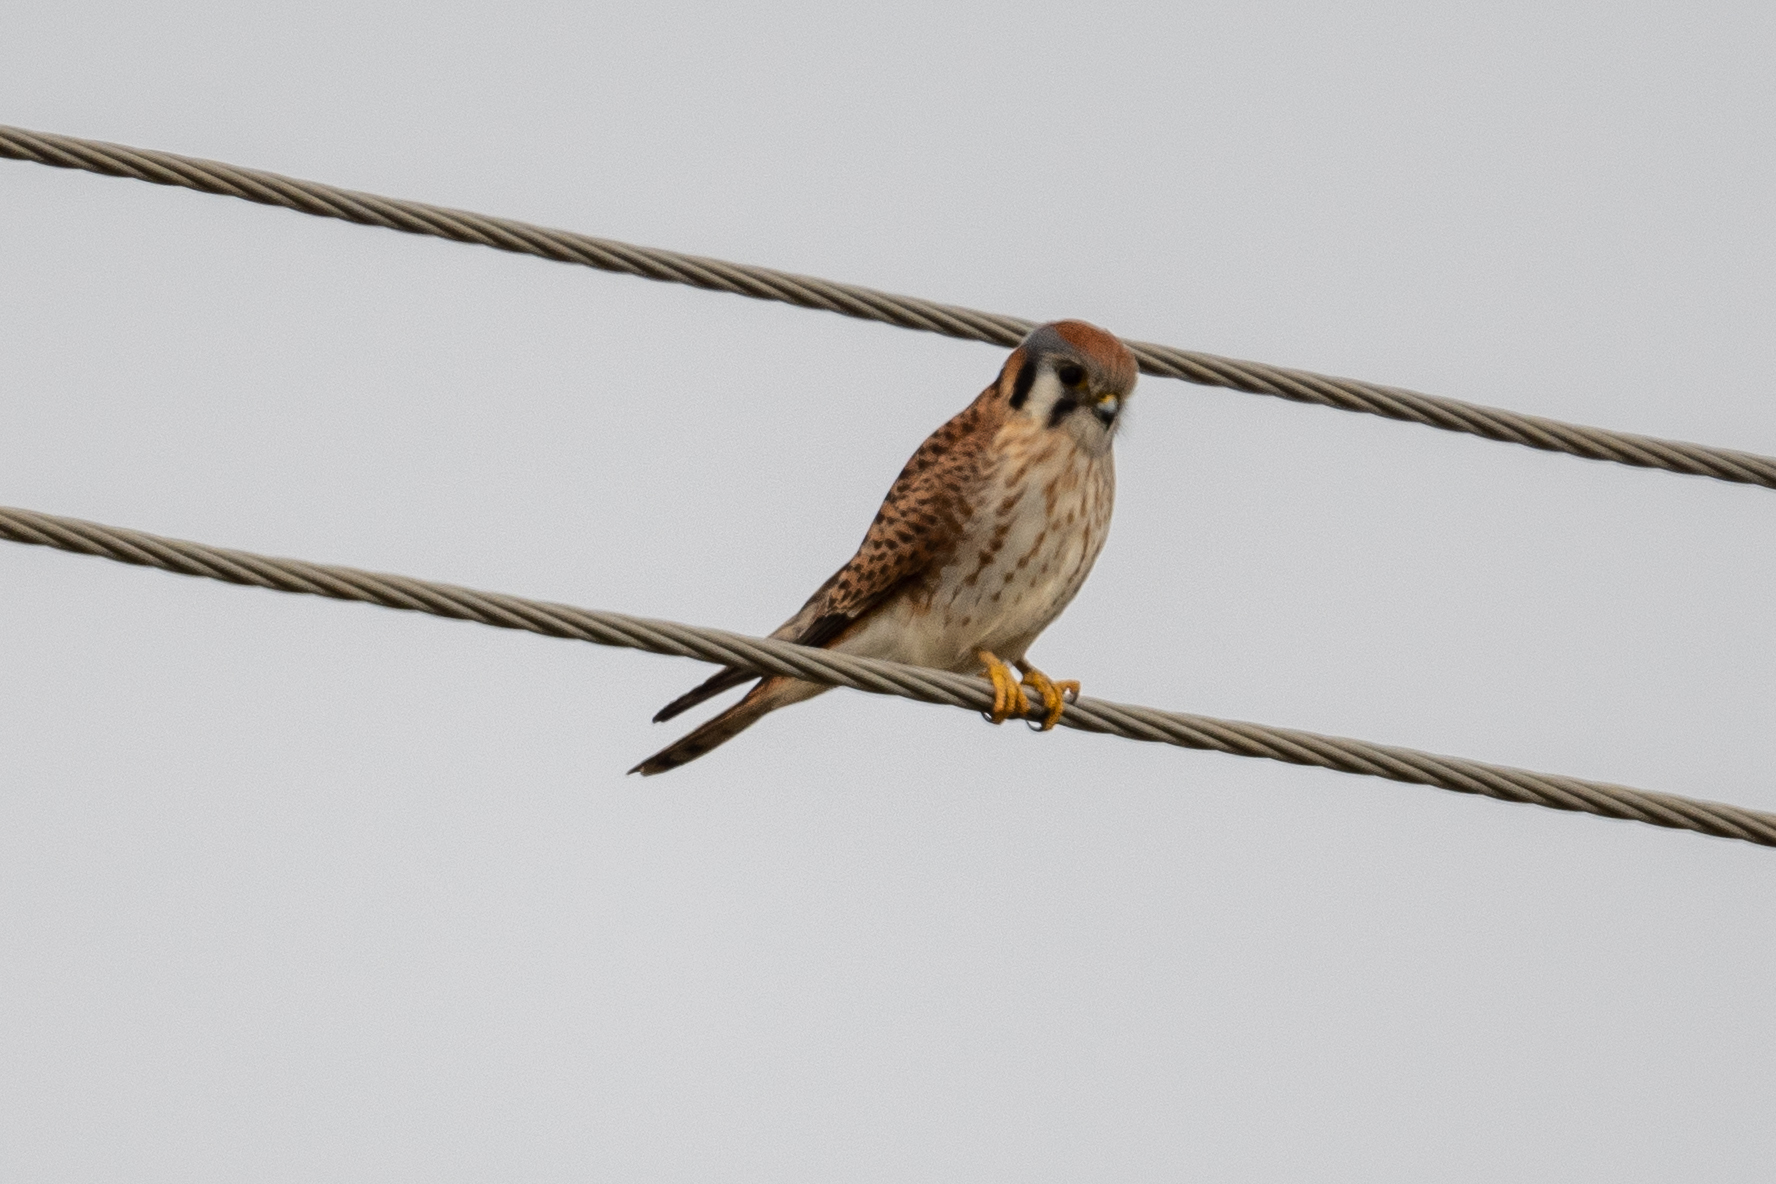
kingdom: Animalia
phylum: Chordata
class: Aves
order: Falconiformes
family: Falconidae
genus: Falco
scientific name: Falco sparverius
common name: American kestrel
